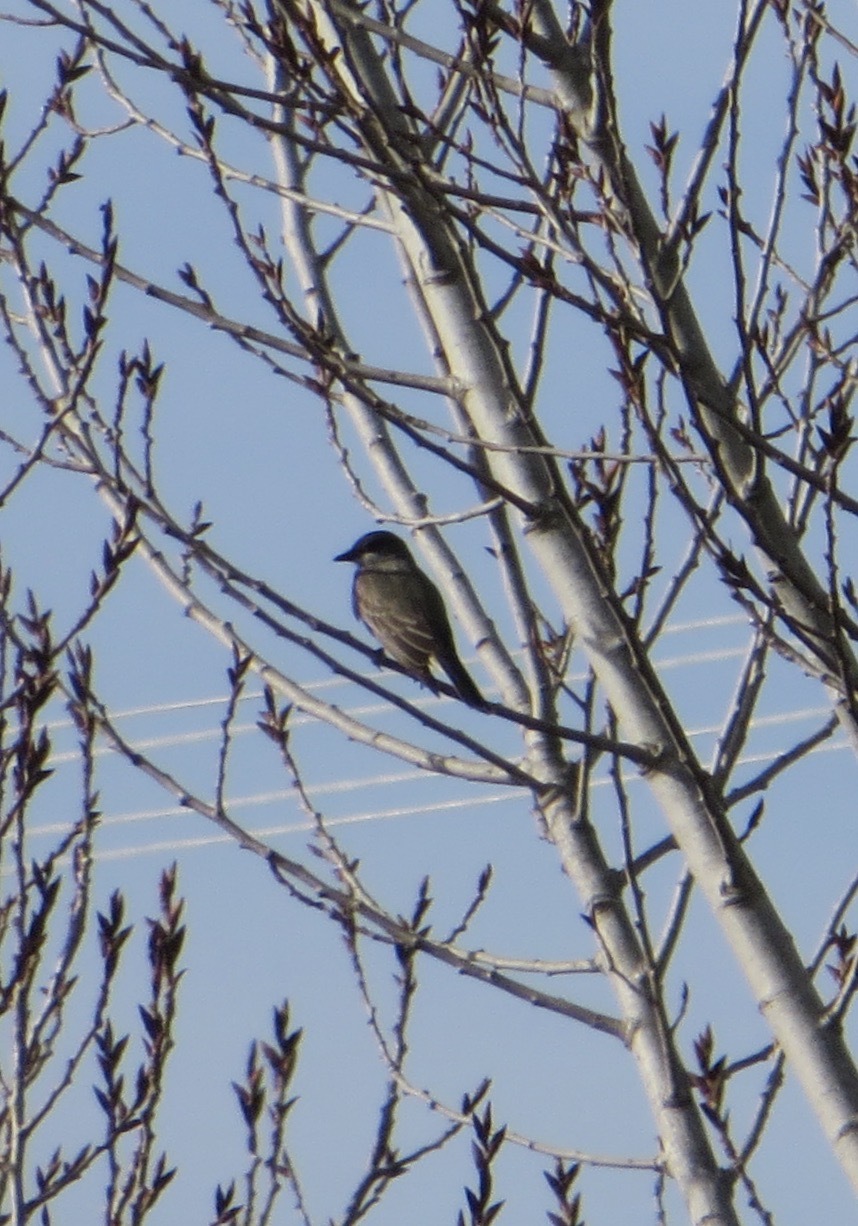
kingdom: Animalia
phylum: Chordata
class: Aves
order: Passeriformes
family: Tyrannidae
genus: Tyrannus
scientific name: Tyrannus vociferans
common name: Cassin's kingbird
